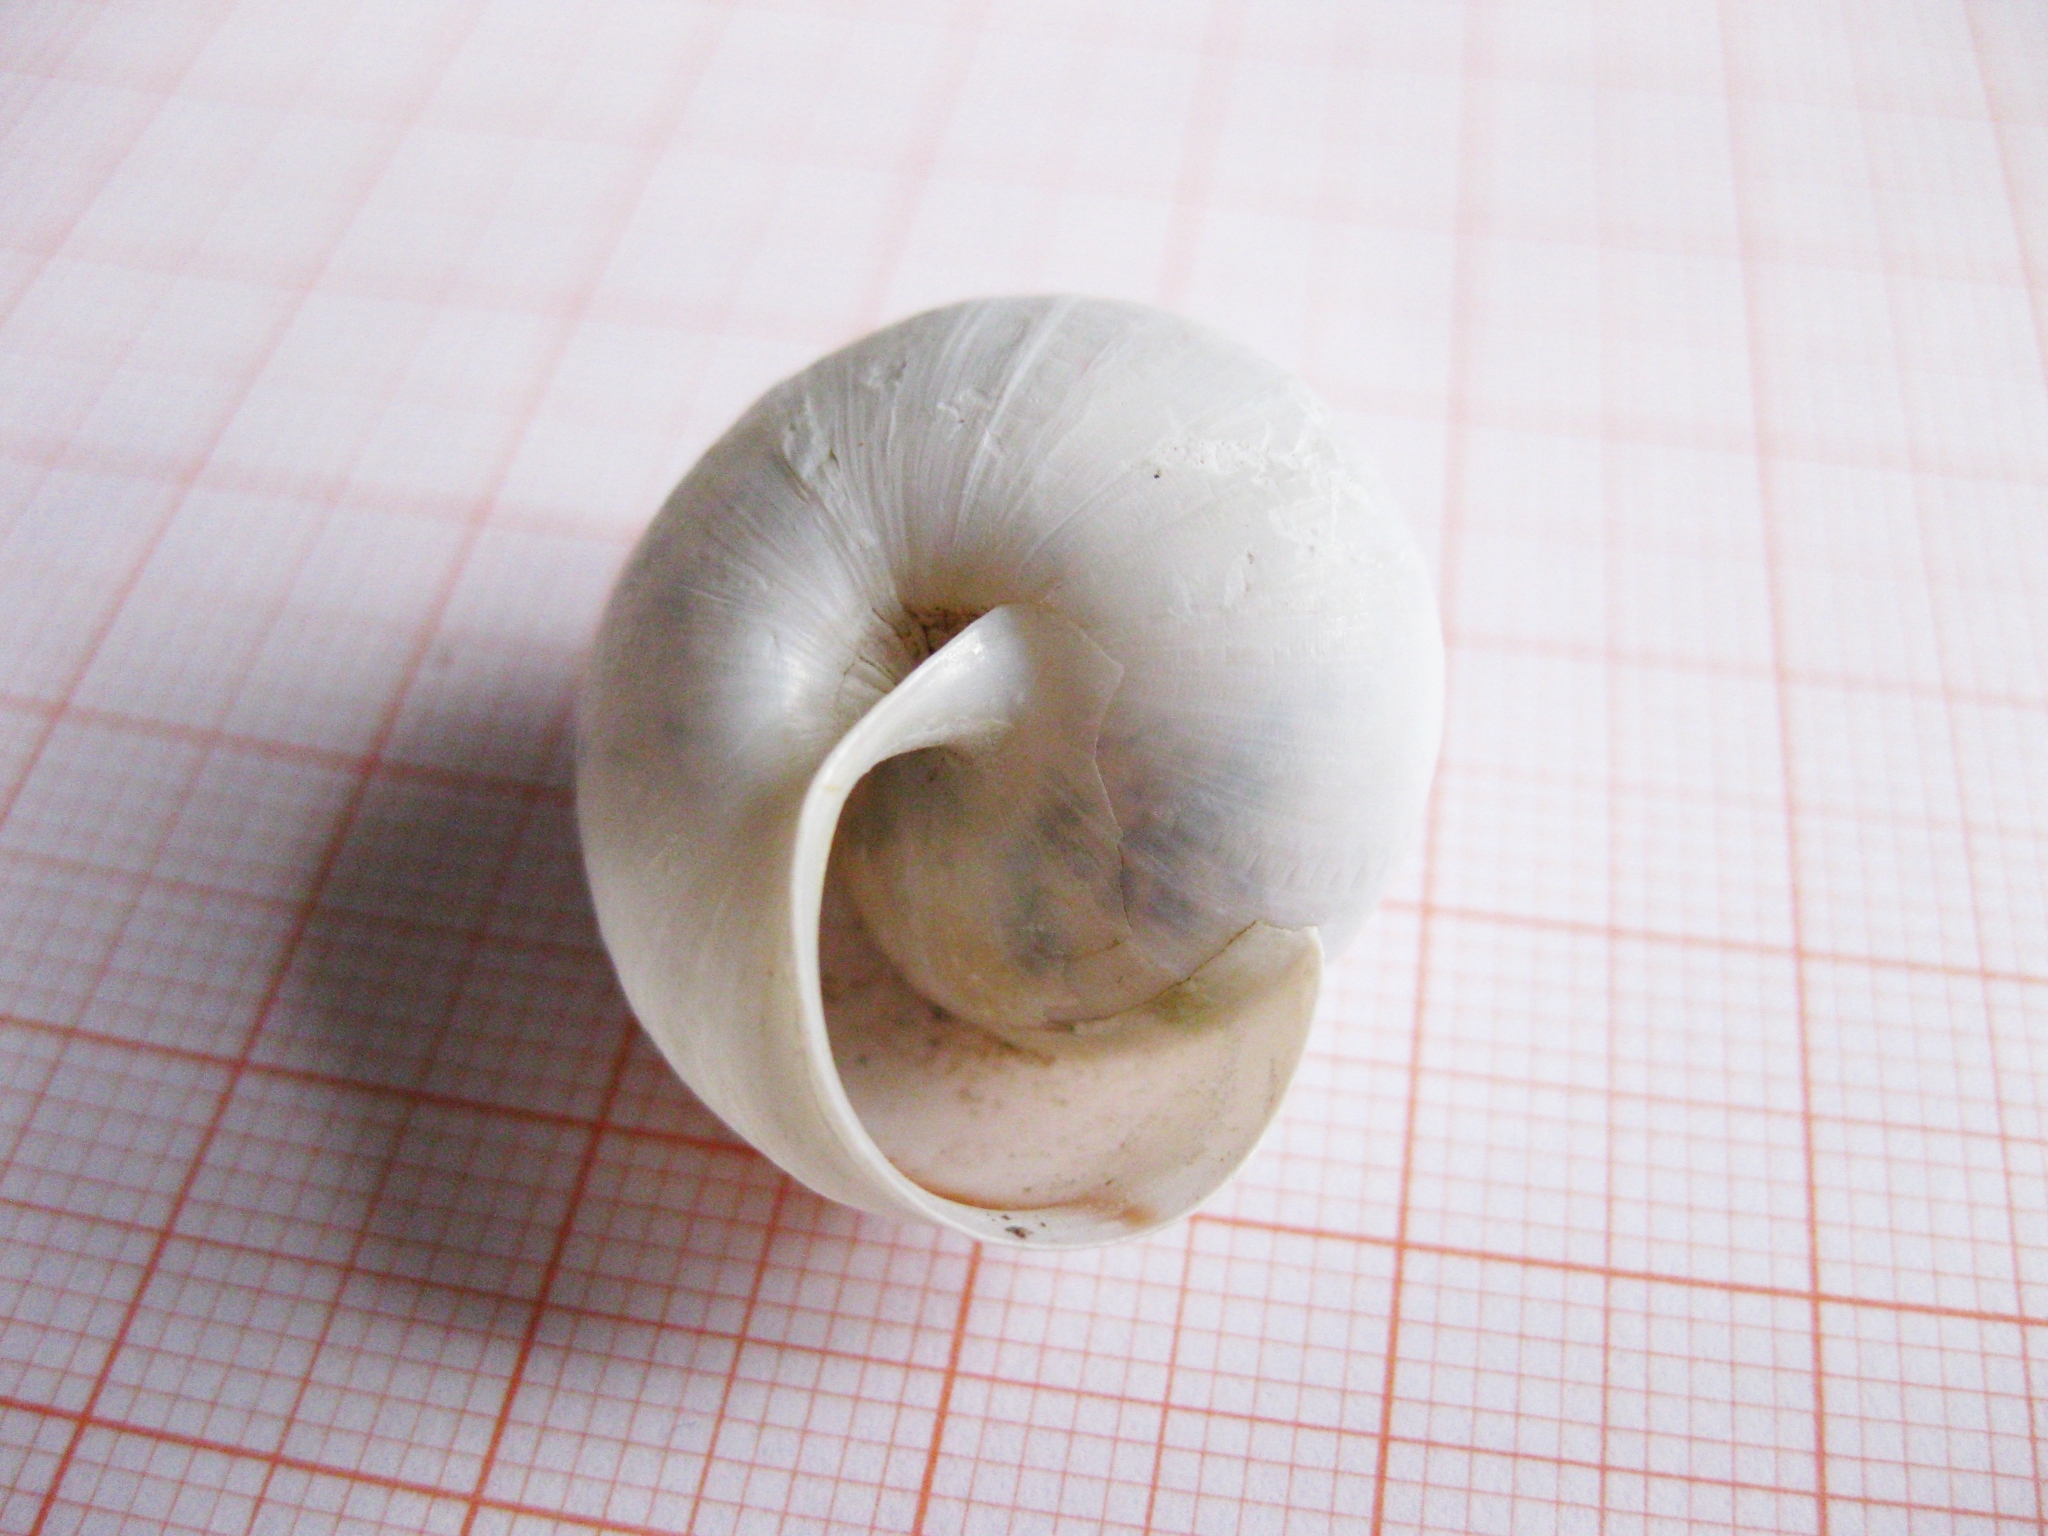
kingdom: Animalia
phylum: Mollusca
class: Gastropoda
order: Stylommatophora
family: Camaenidae
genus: Fruticicola
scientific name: Fruticicola fruticum
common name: Bush snail
